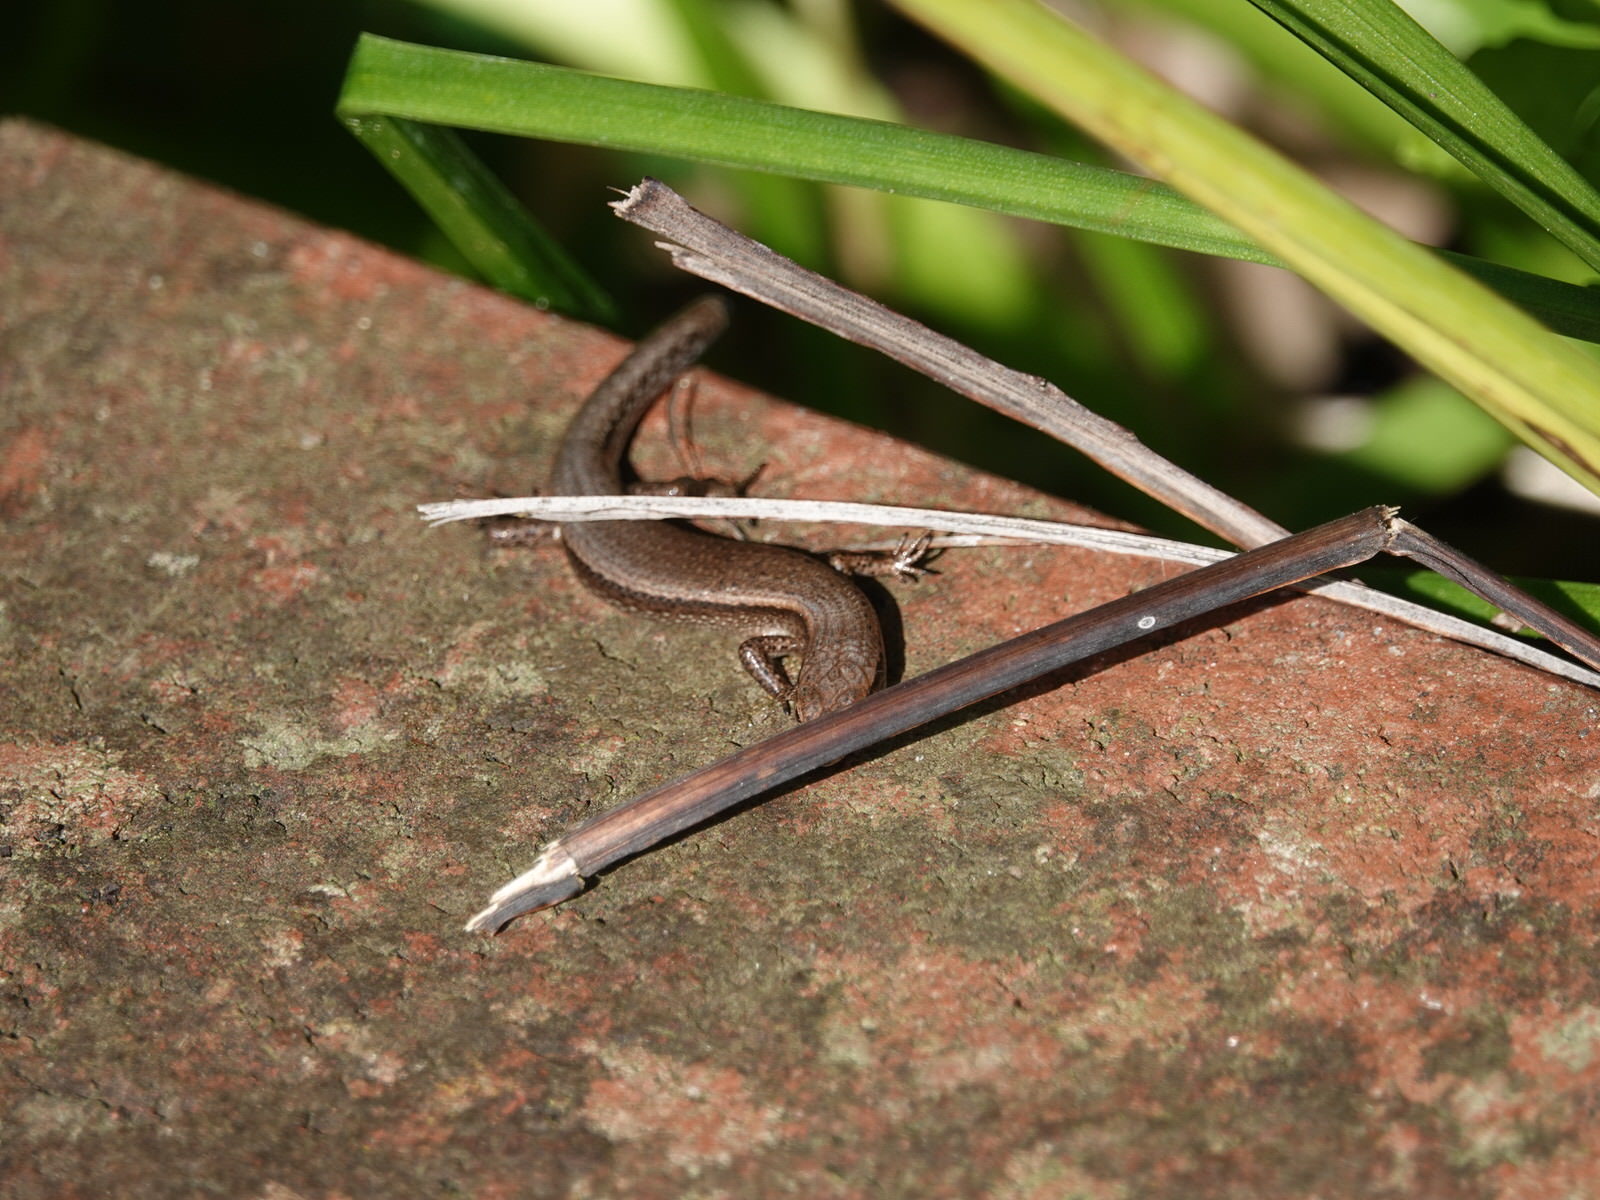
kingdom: Animalia
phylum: Chordata
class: Squamata
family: Scincidae
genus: Lampropholis
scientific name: Lampropholis delicata
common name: Plague skink
